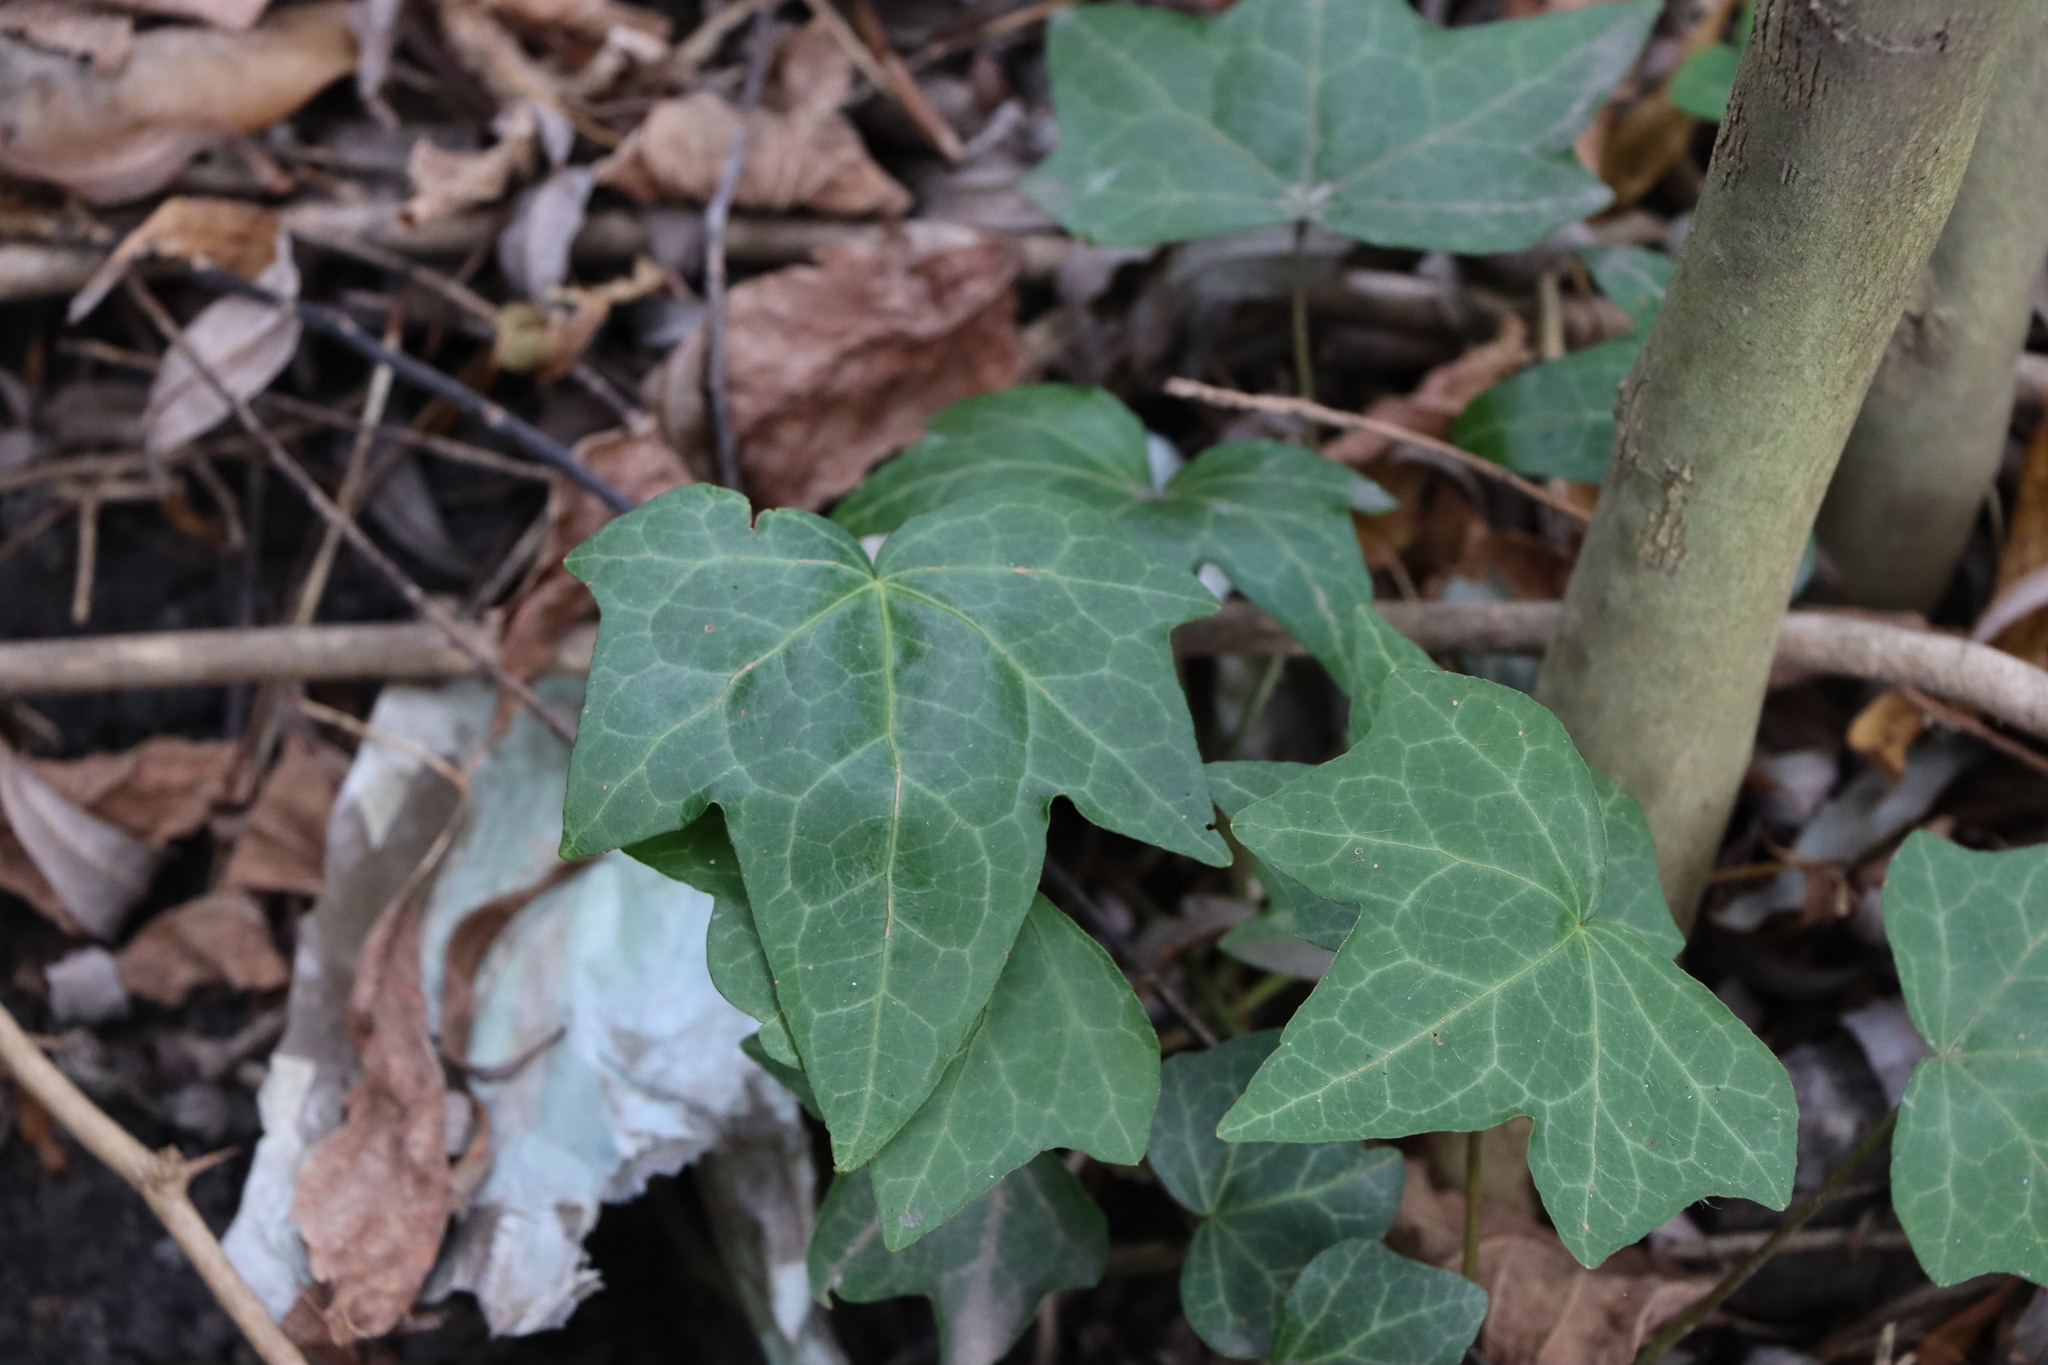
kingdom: Plantae
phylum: Tracheophyta
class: Magnoliopsida
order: Apiales
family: Araliaceae
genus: Hedera
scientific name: Hedera helix
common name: Ivy
